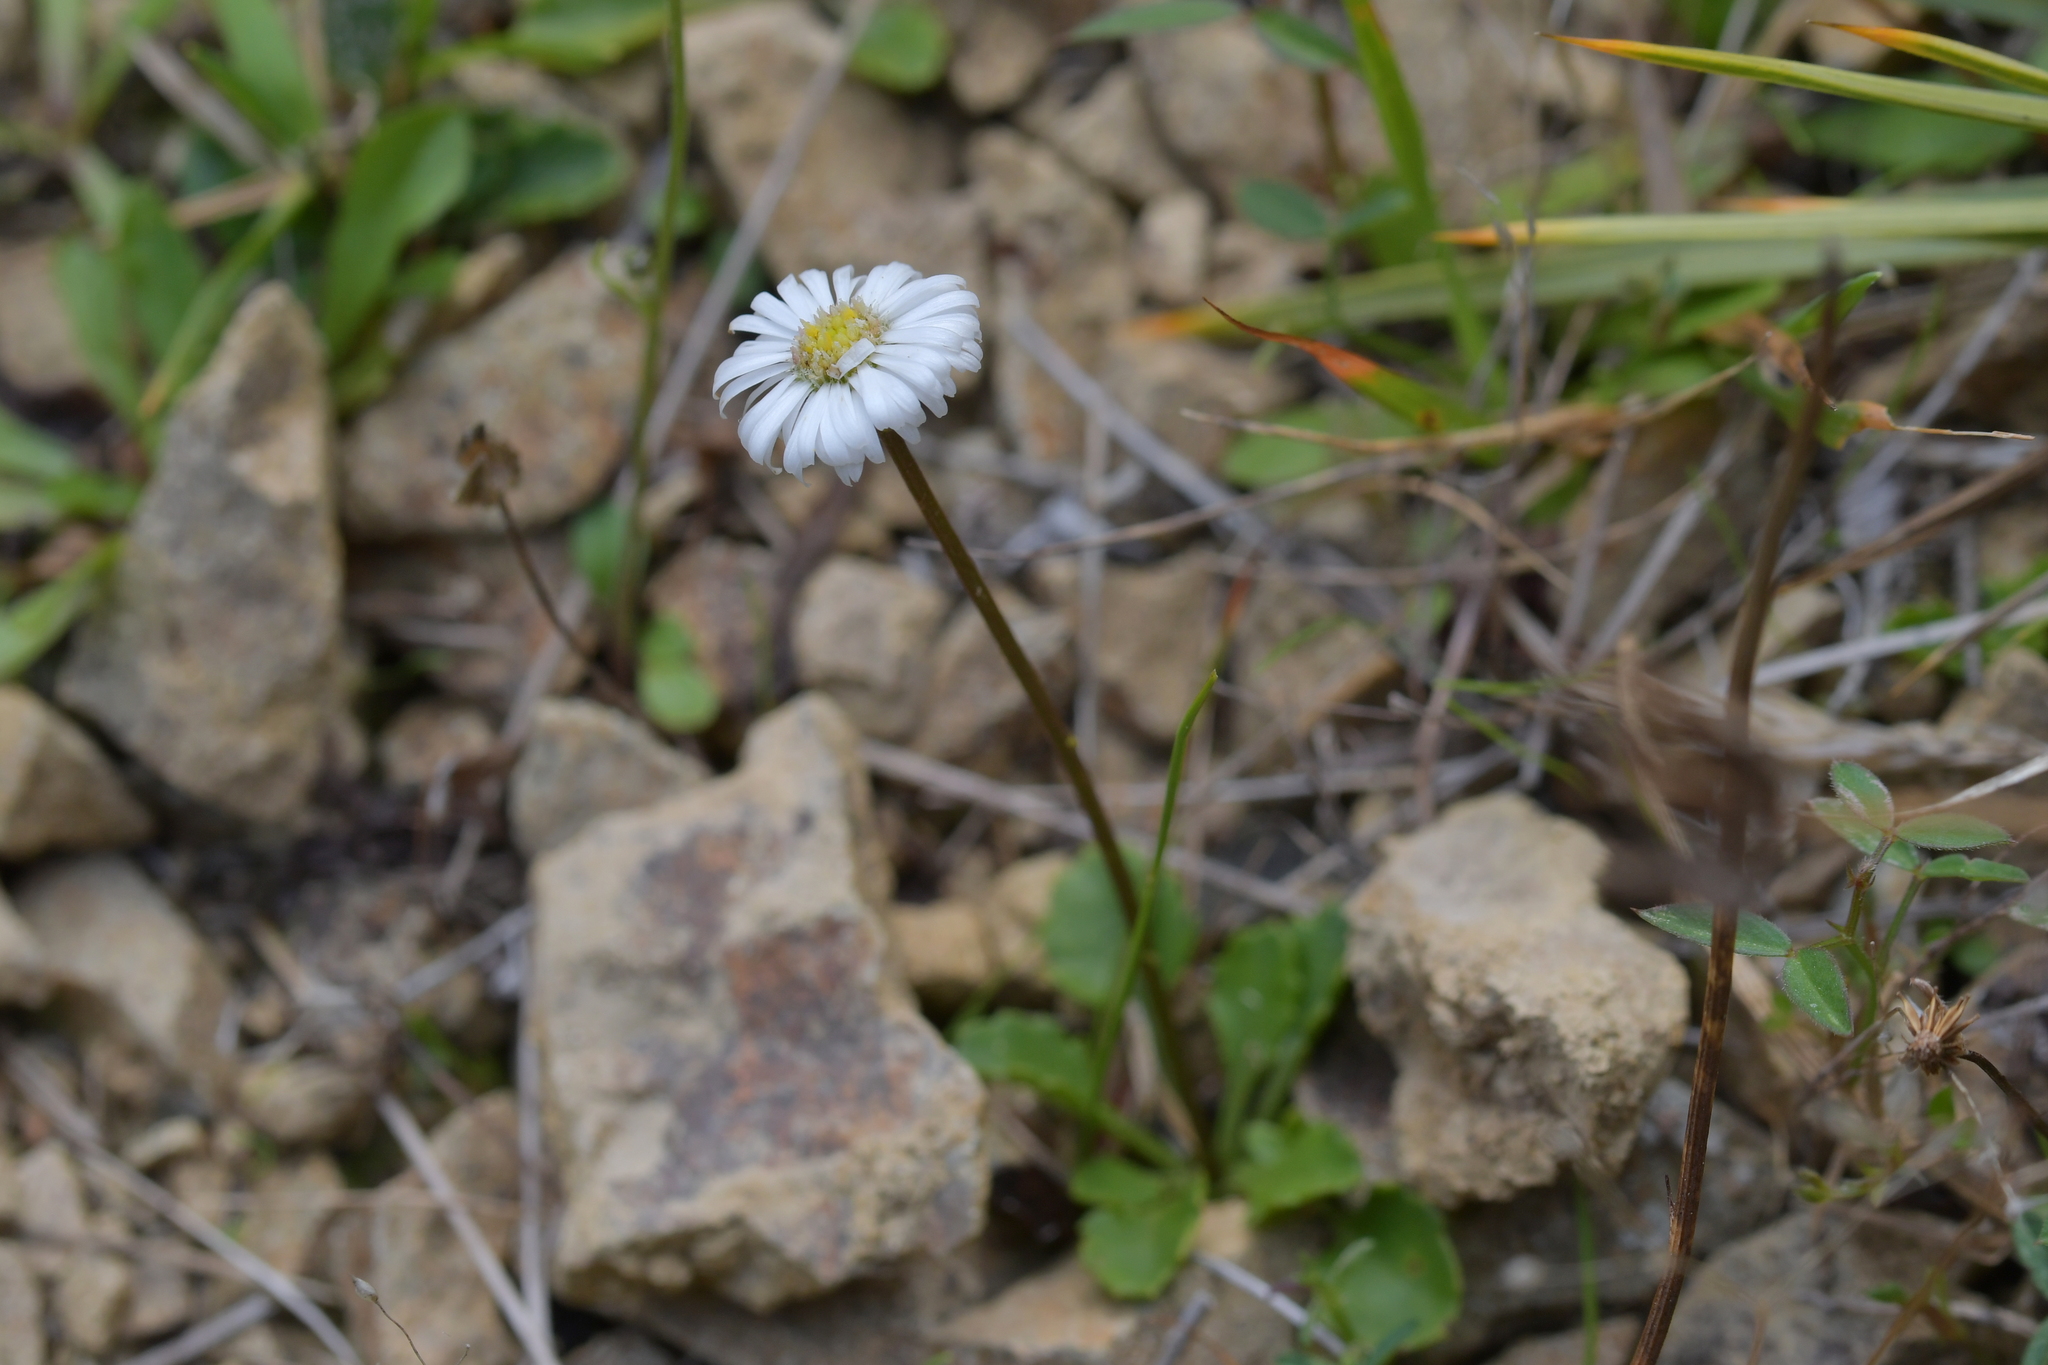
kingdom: Plantae
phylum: Tracheophyta
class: Magnoliopsida
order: Asterales
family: Asteraceae
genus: Lagenophora
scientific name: Lagenophora pumila
